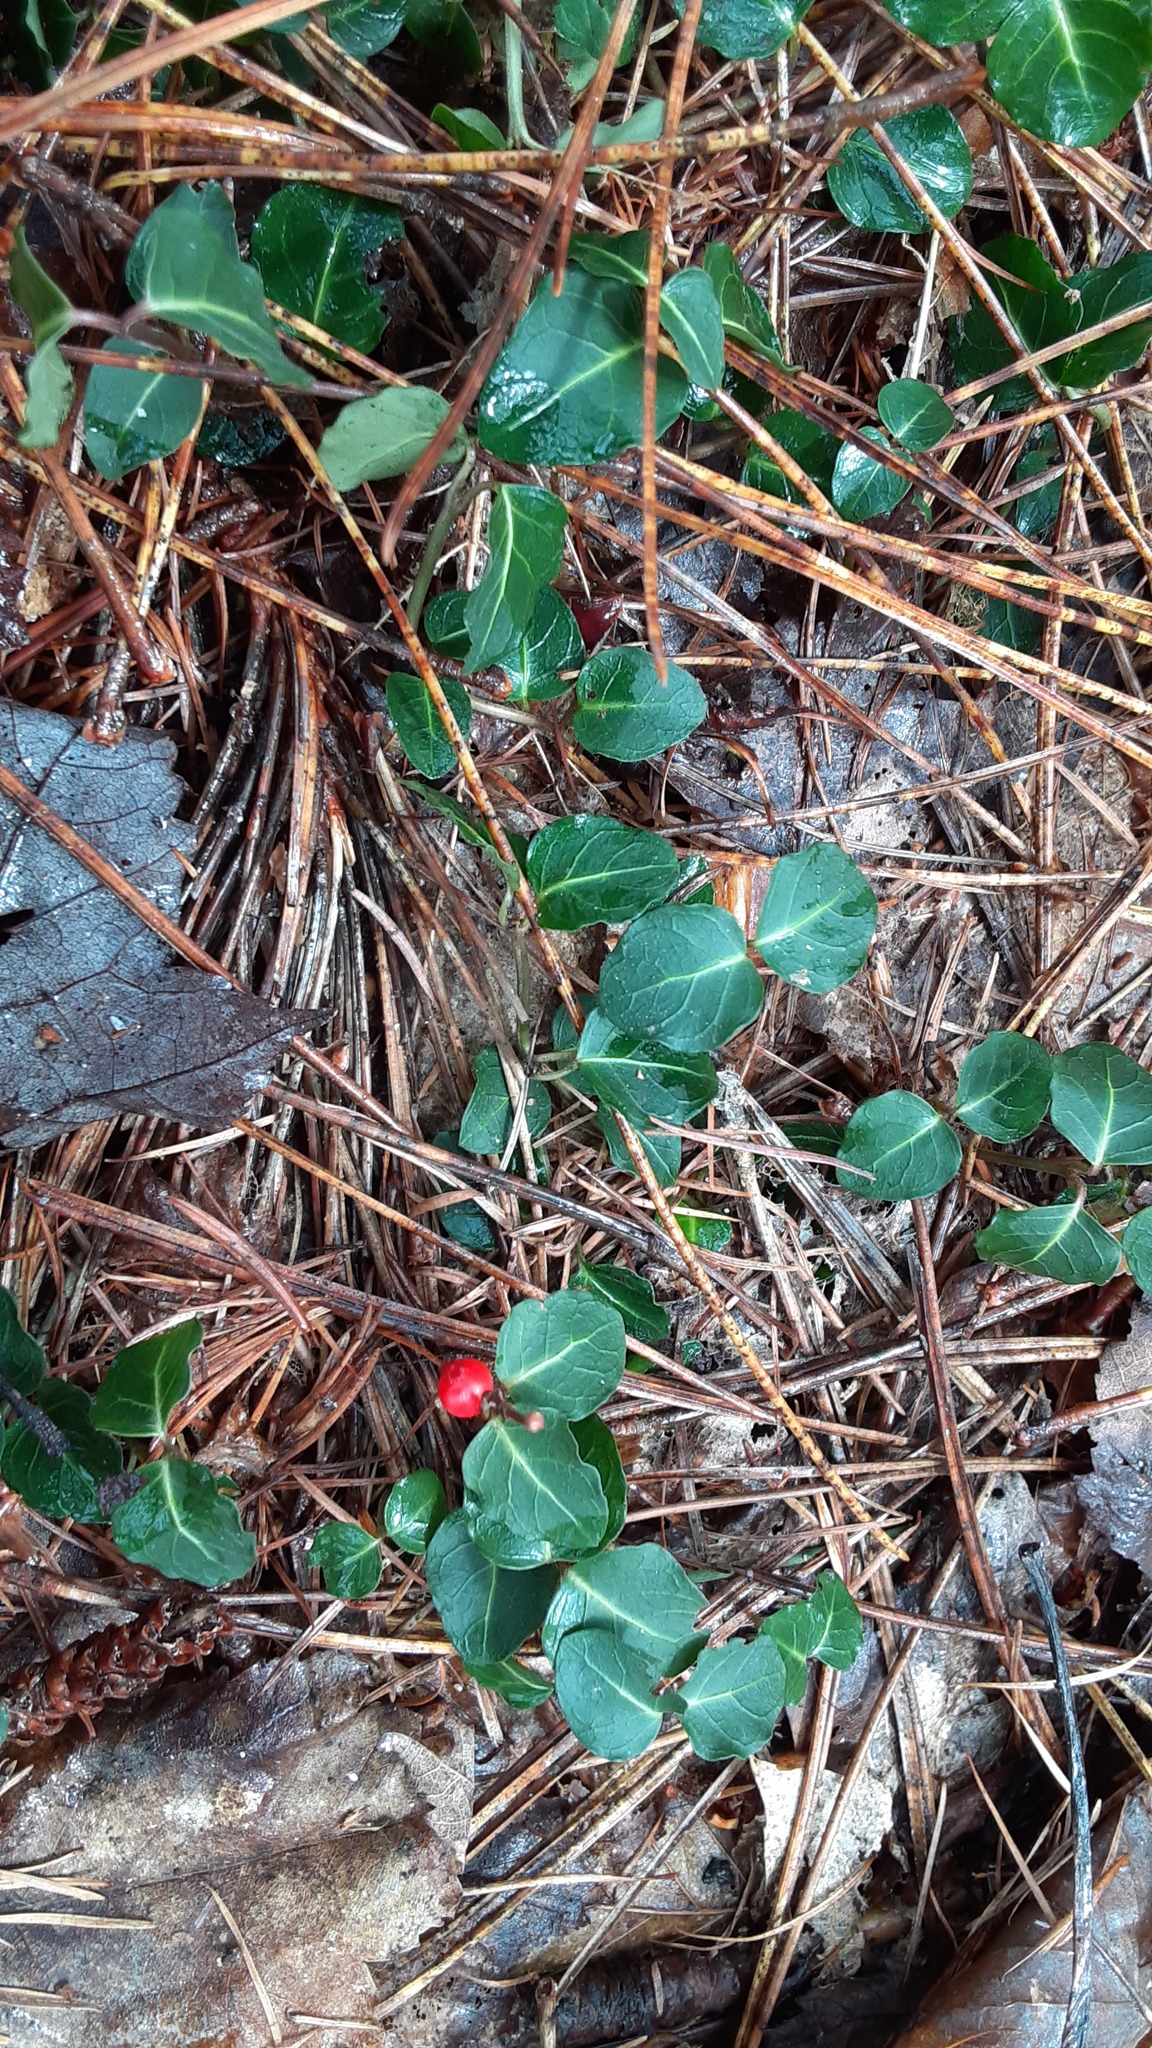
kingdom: Plantae
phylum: Tracheophyta
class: Magnoliopsida
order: Gentianales
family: Rubiaceae
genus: Mitchella
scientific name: Mitchella repens
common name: Partridge-berry
